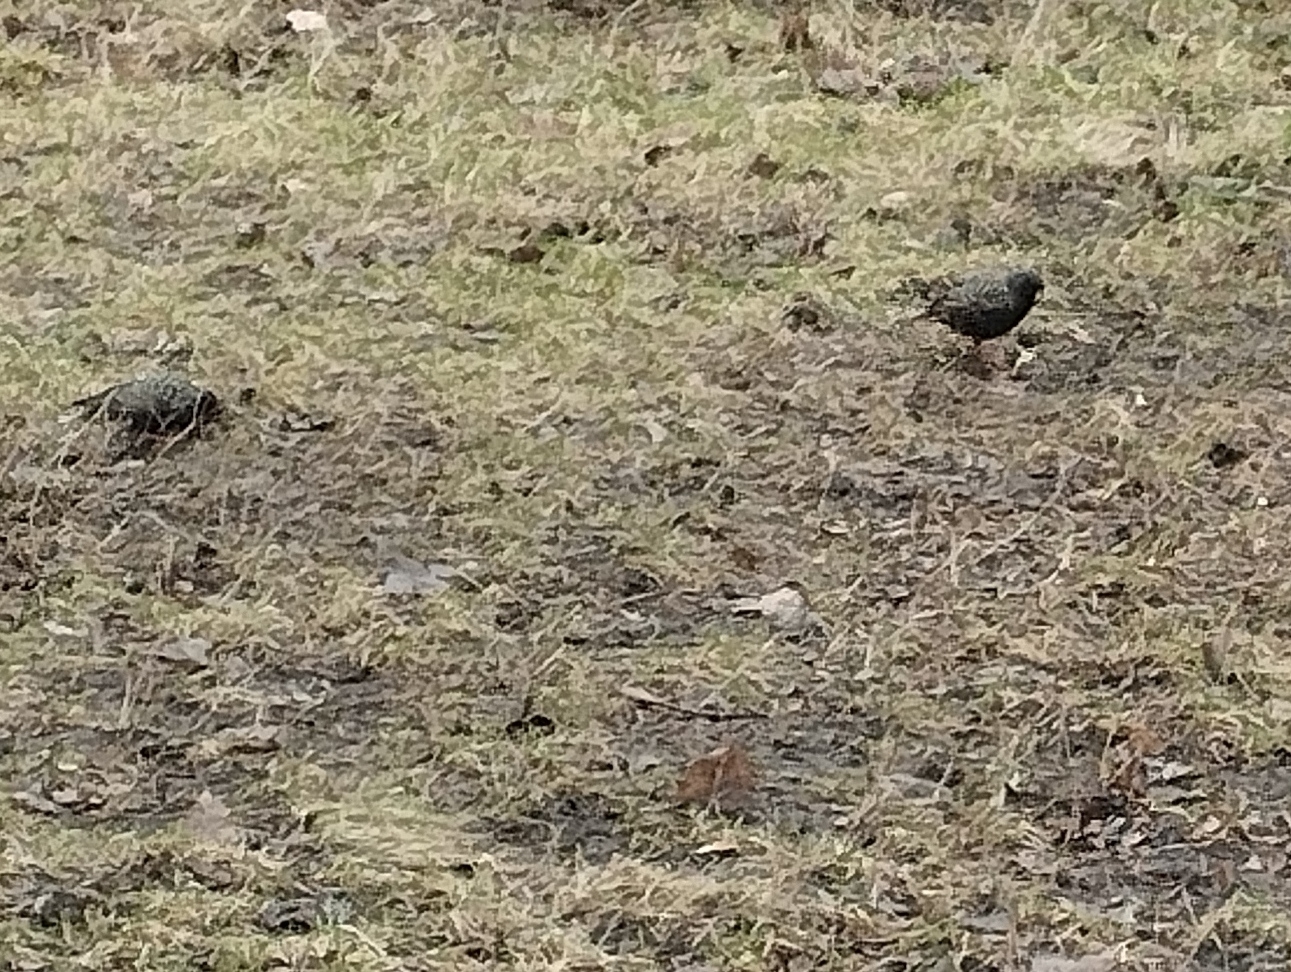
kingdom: Animalia
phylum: Chordata
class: Aves
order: Passeriformes
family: Sturnidae
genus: Sturnus
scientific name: Sturnus vulgaris
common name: Common starling
